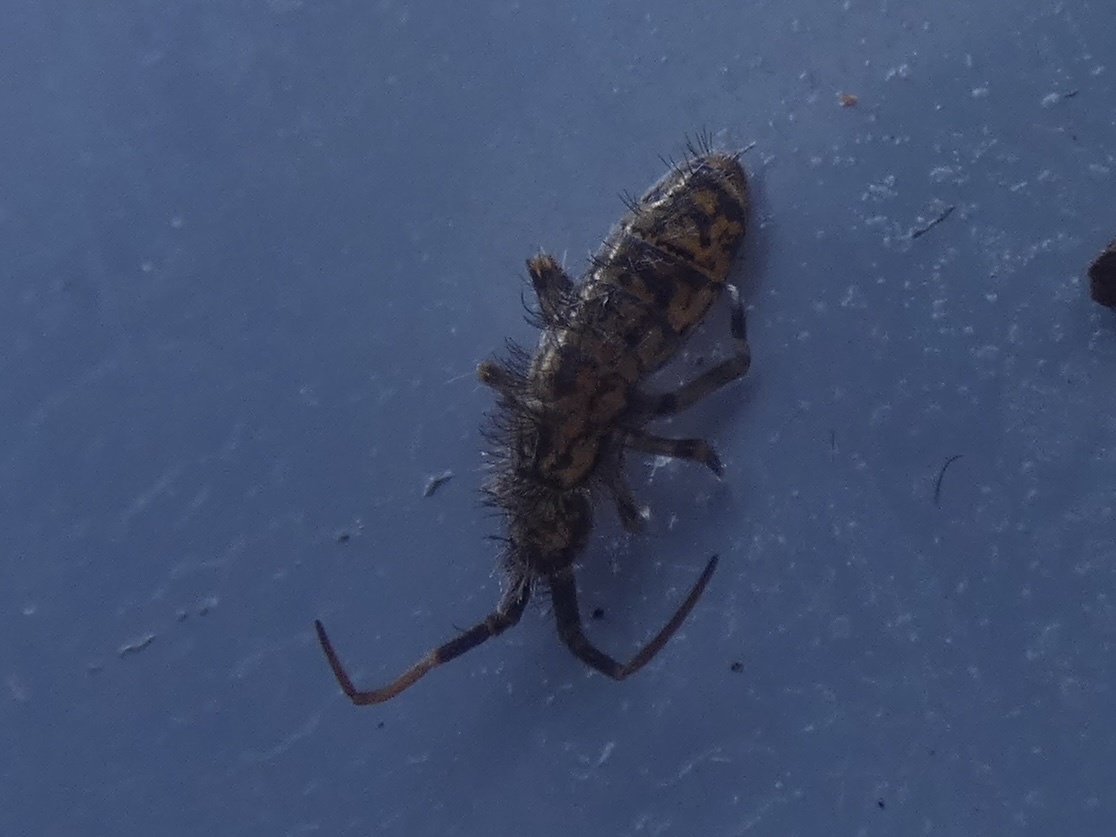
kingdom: Animalia
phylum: Arthropoda
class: Collembola
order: Entomobryomorpha
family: Orchesellidae
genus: Orchesella
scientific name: Orchesella villosa
